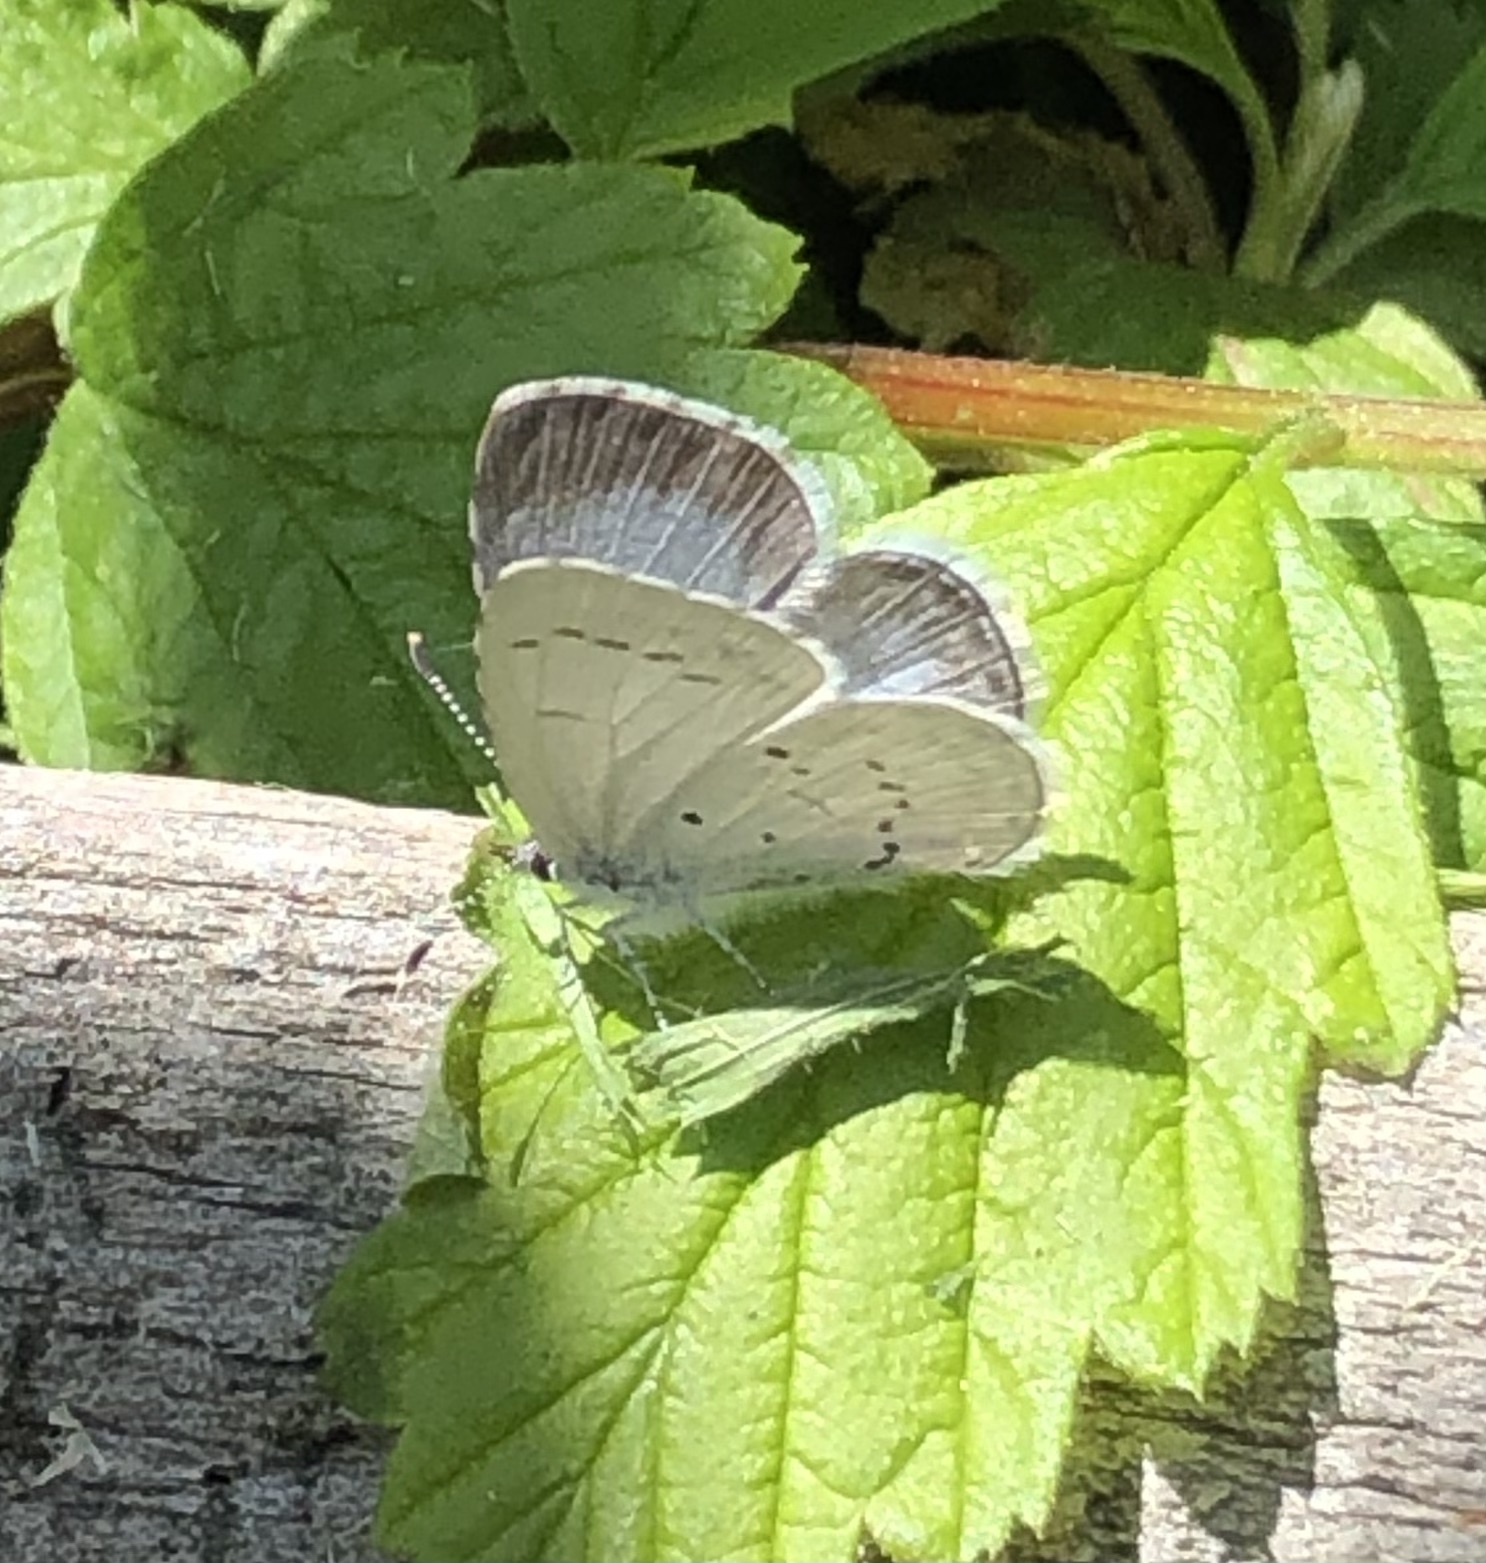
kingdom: Animalia
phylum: Arthropoda
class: Insecta
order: Lepidoptera
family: Lycaenidae
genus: Celastrina
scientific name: Celastrina ladon
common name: Spring azure
